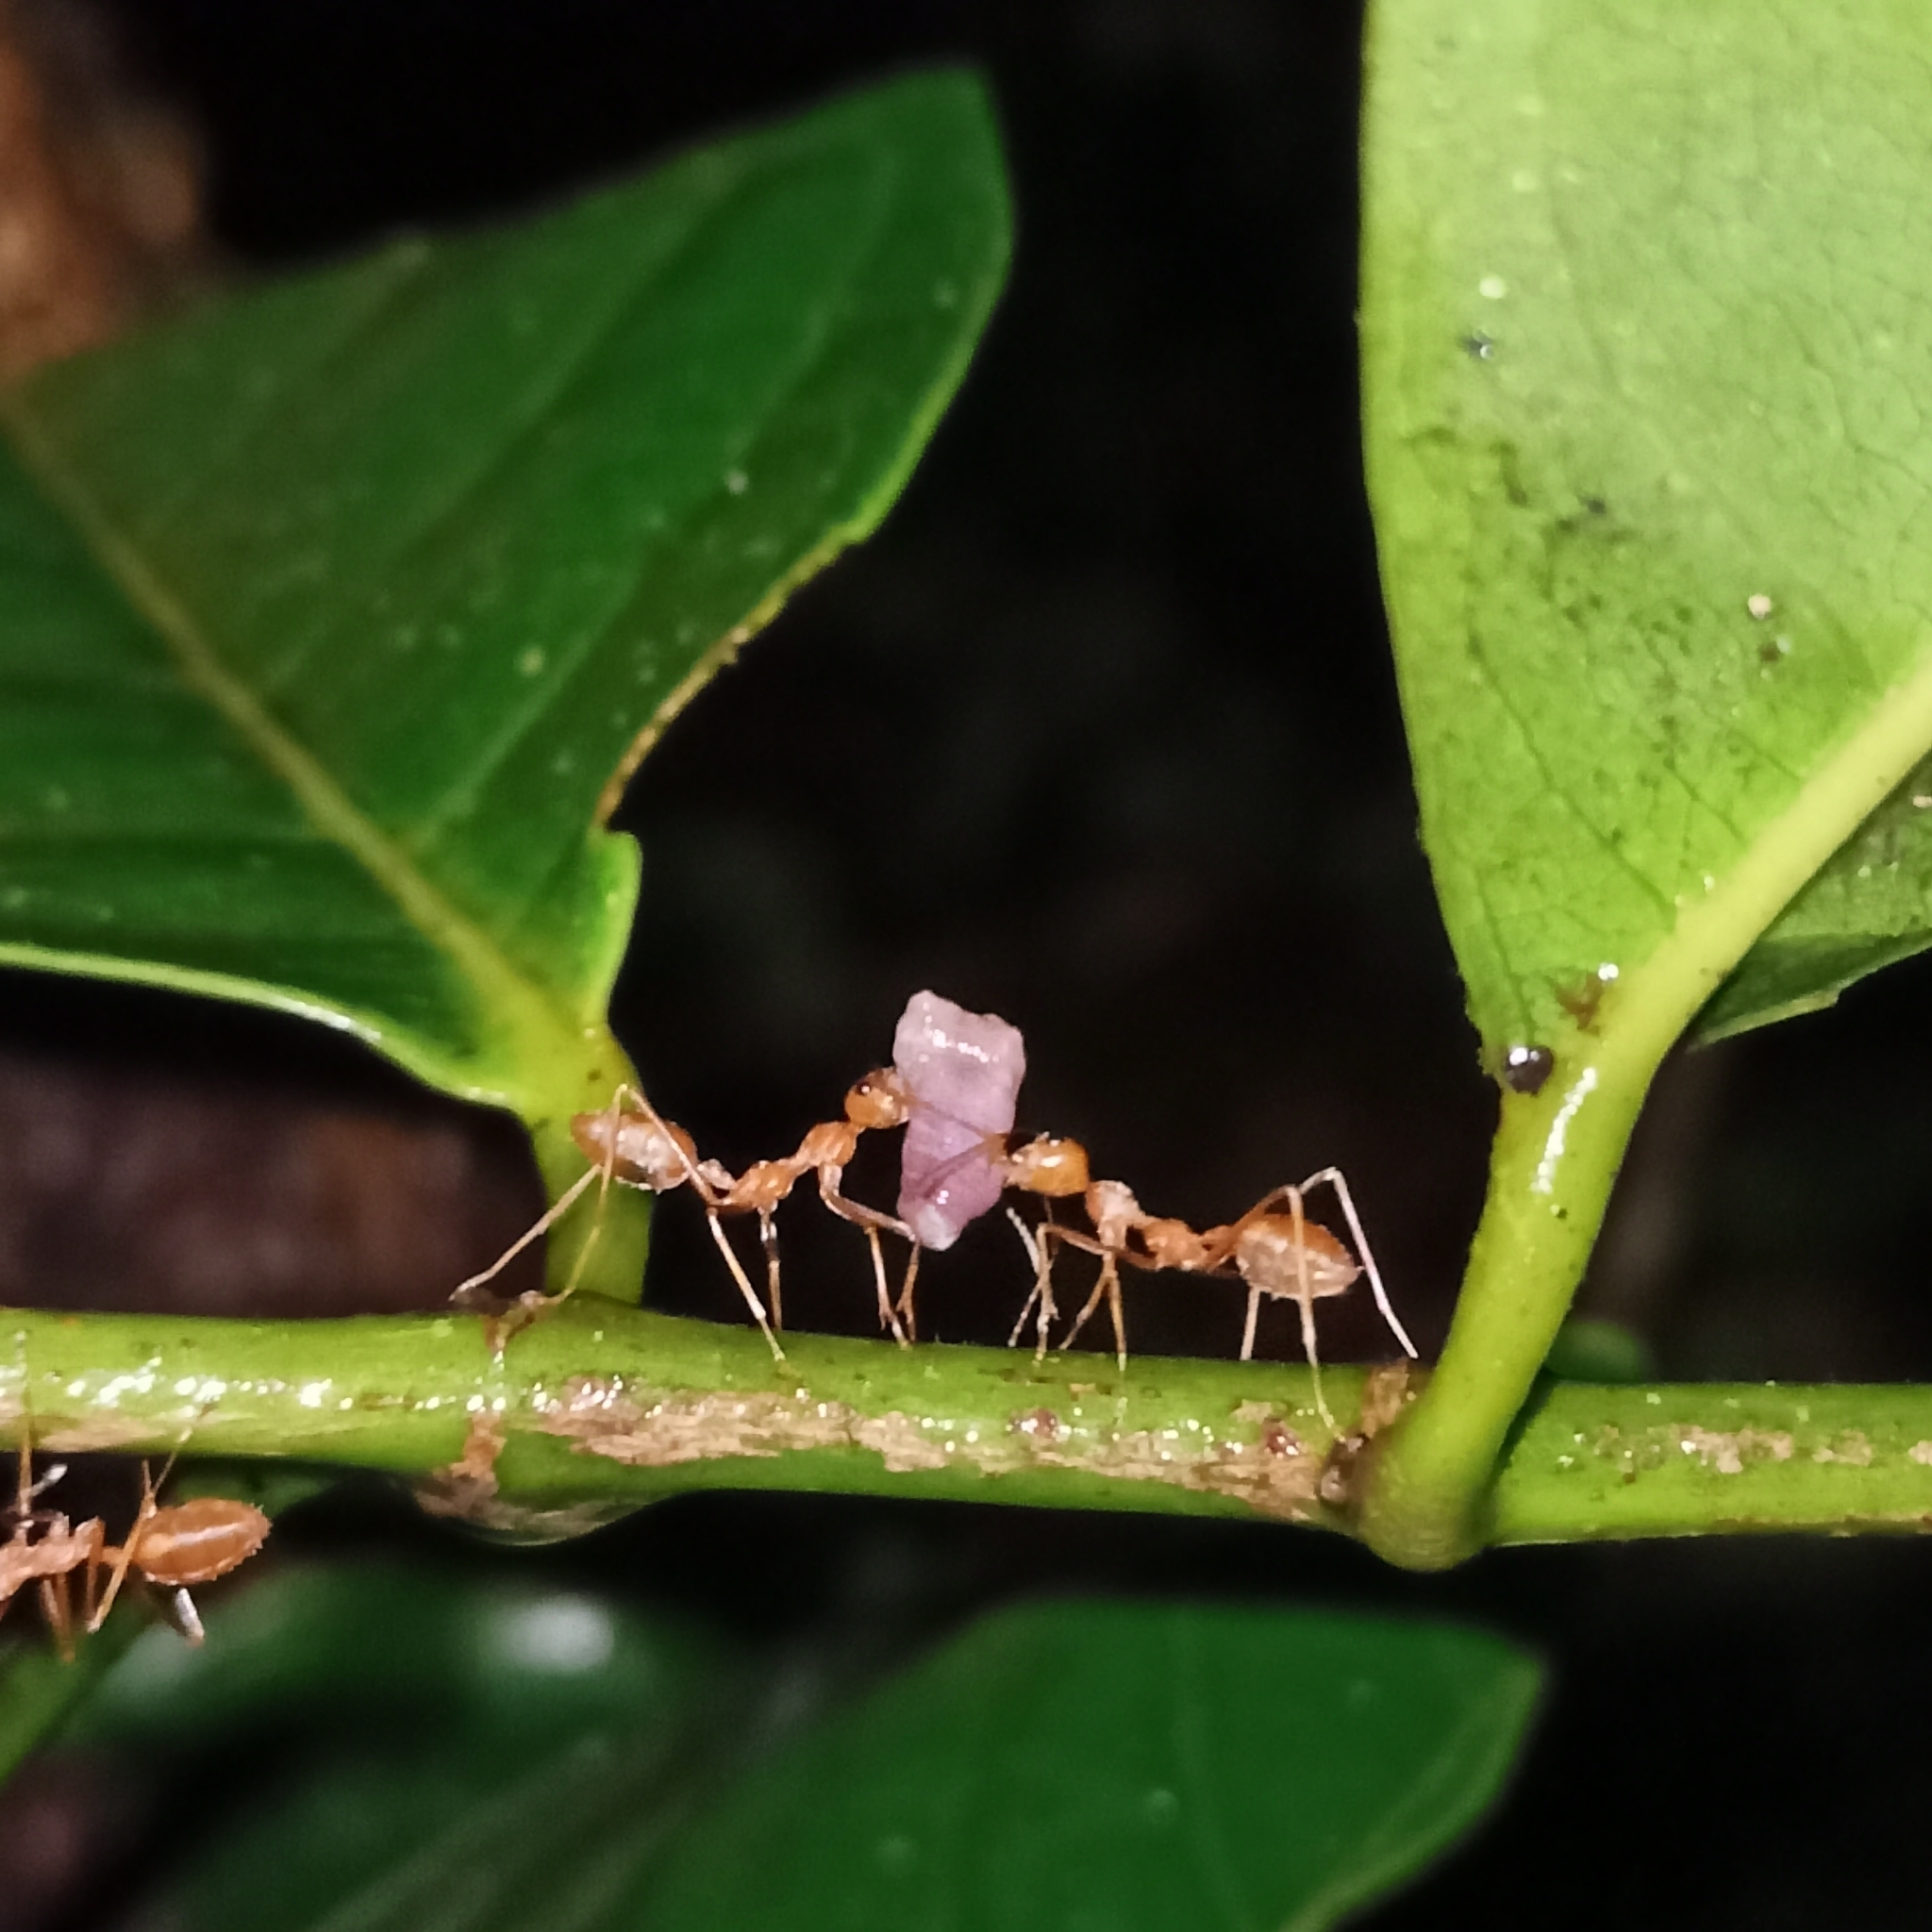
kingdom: Animalia
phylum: Arthropoda
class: Insecta
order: Hymenoptera
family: Formicidae
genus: Oecophylla
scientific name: Oecophylla smaragdina
